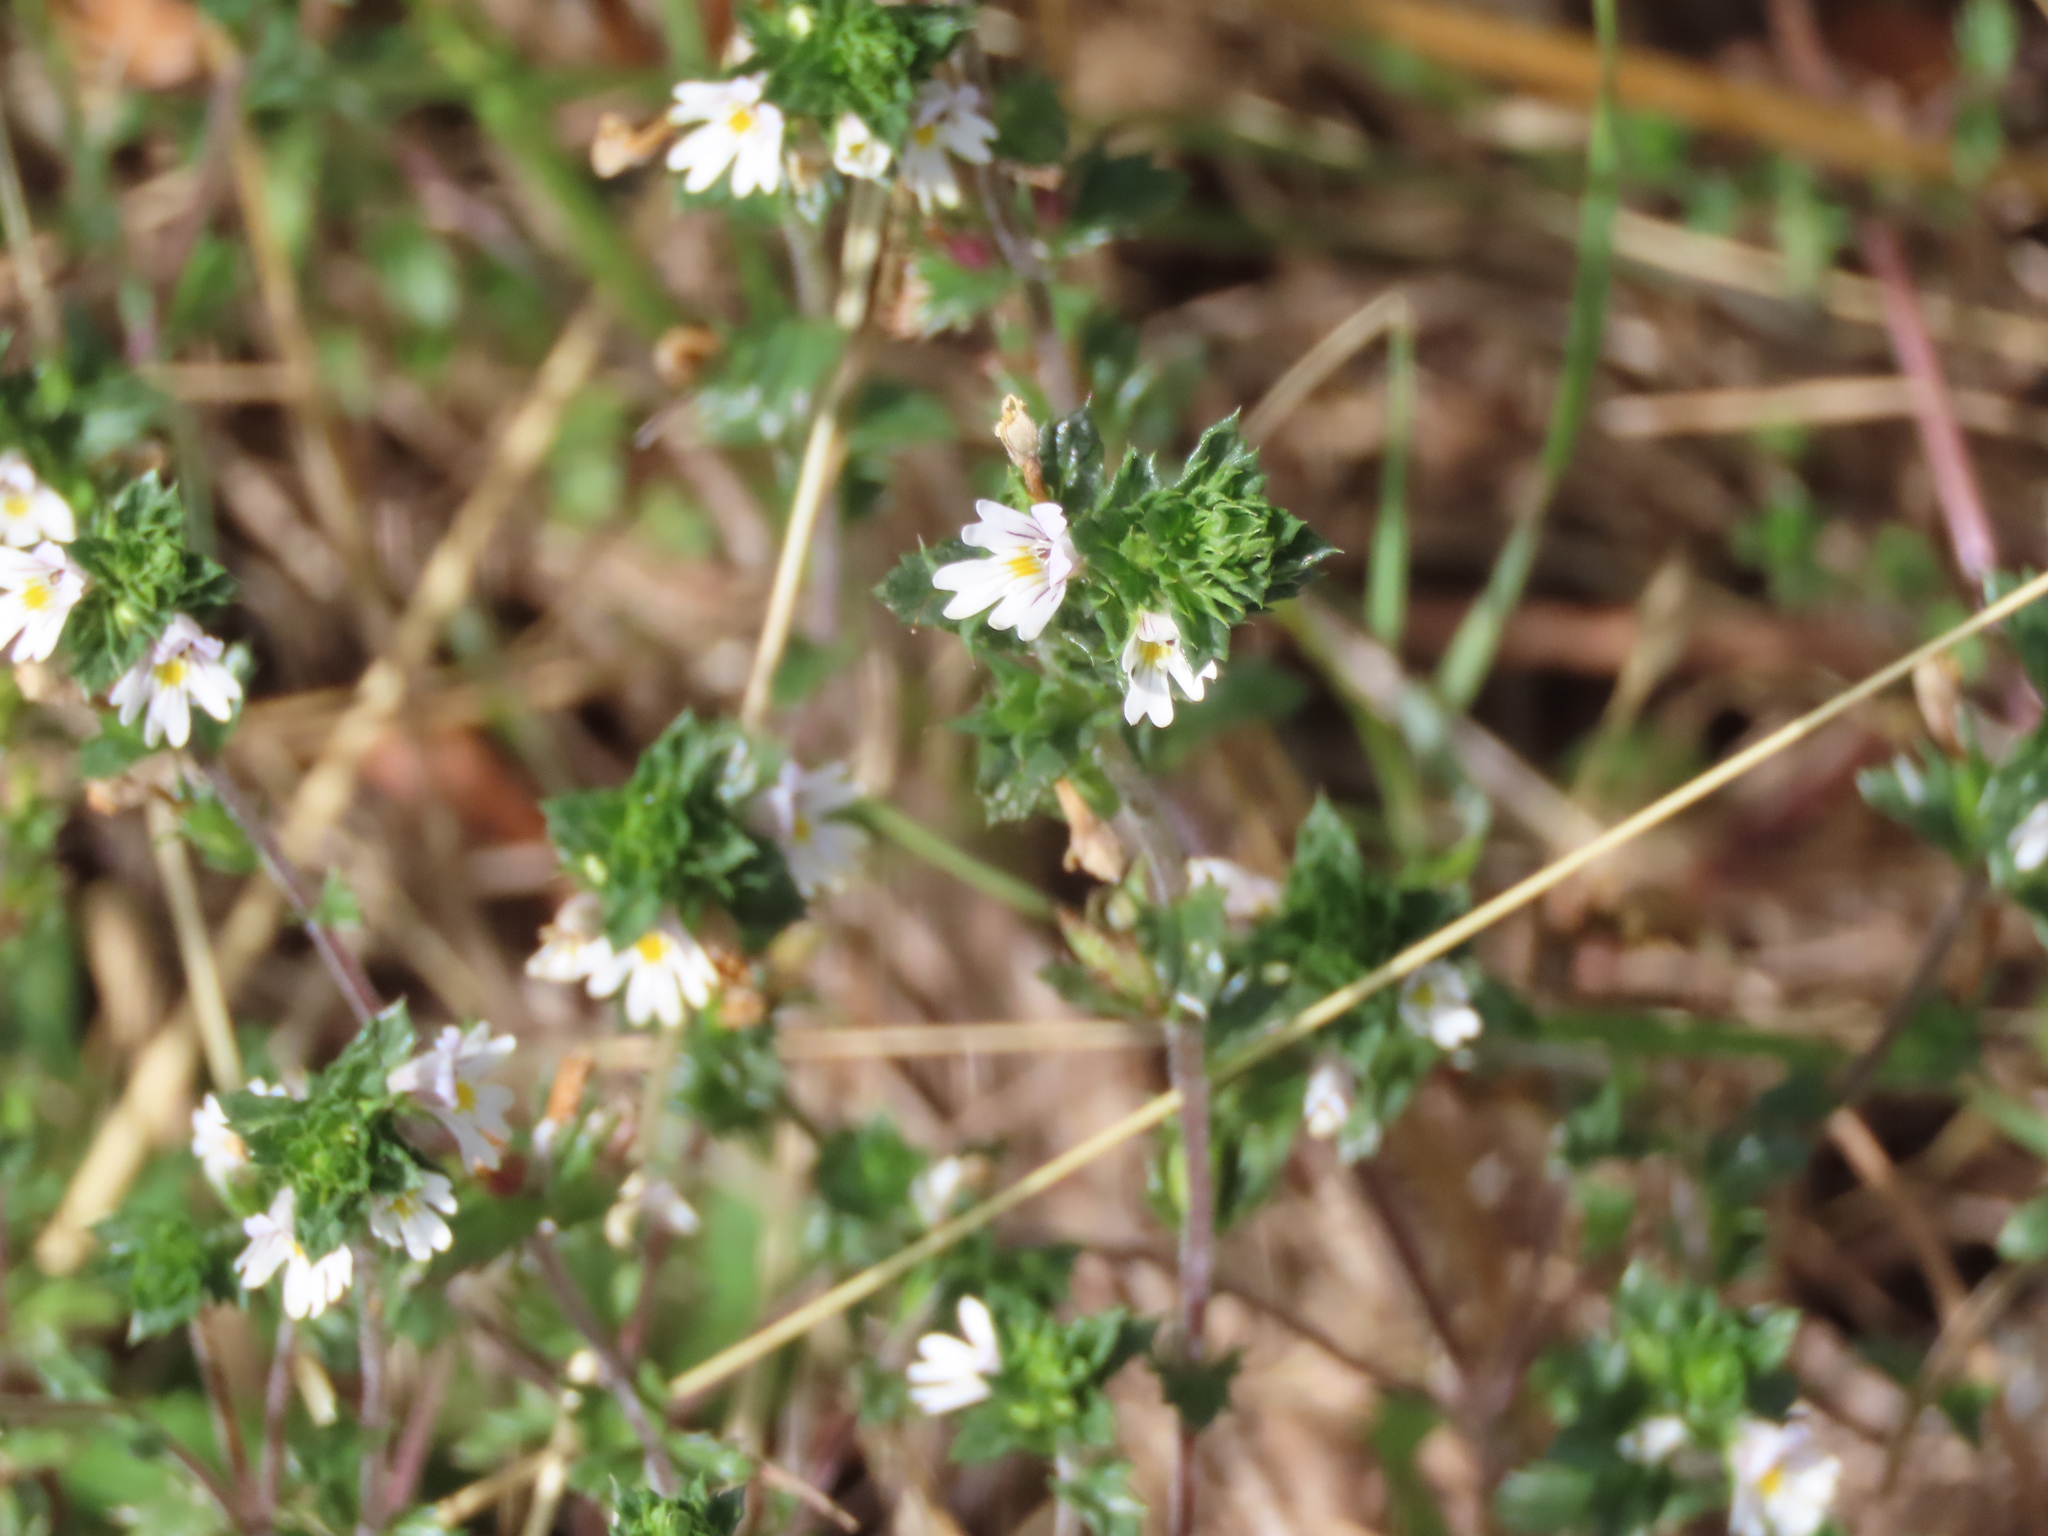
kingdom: Plantae
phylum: Tracheophyta
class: Magnoliopsida
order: Lamiales
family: Orobanchaceae
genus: Euphrasia
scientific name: Euphrasia nemorosa
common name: Common eyebright
